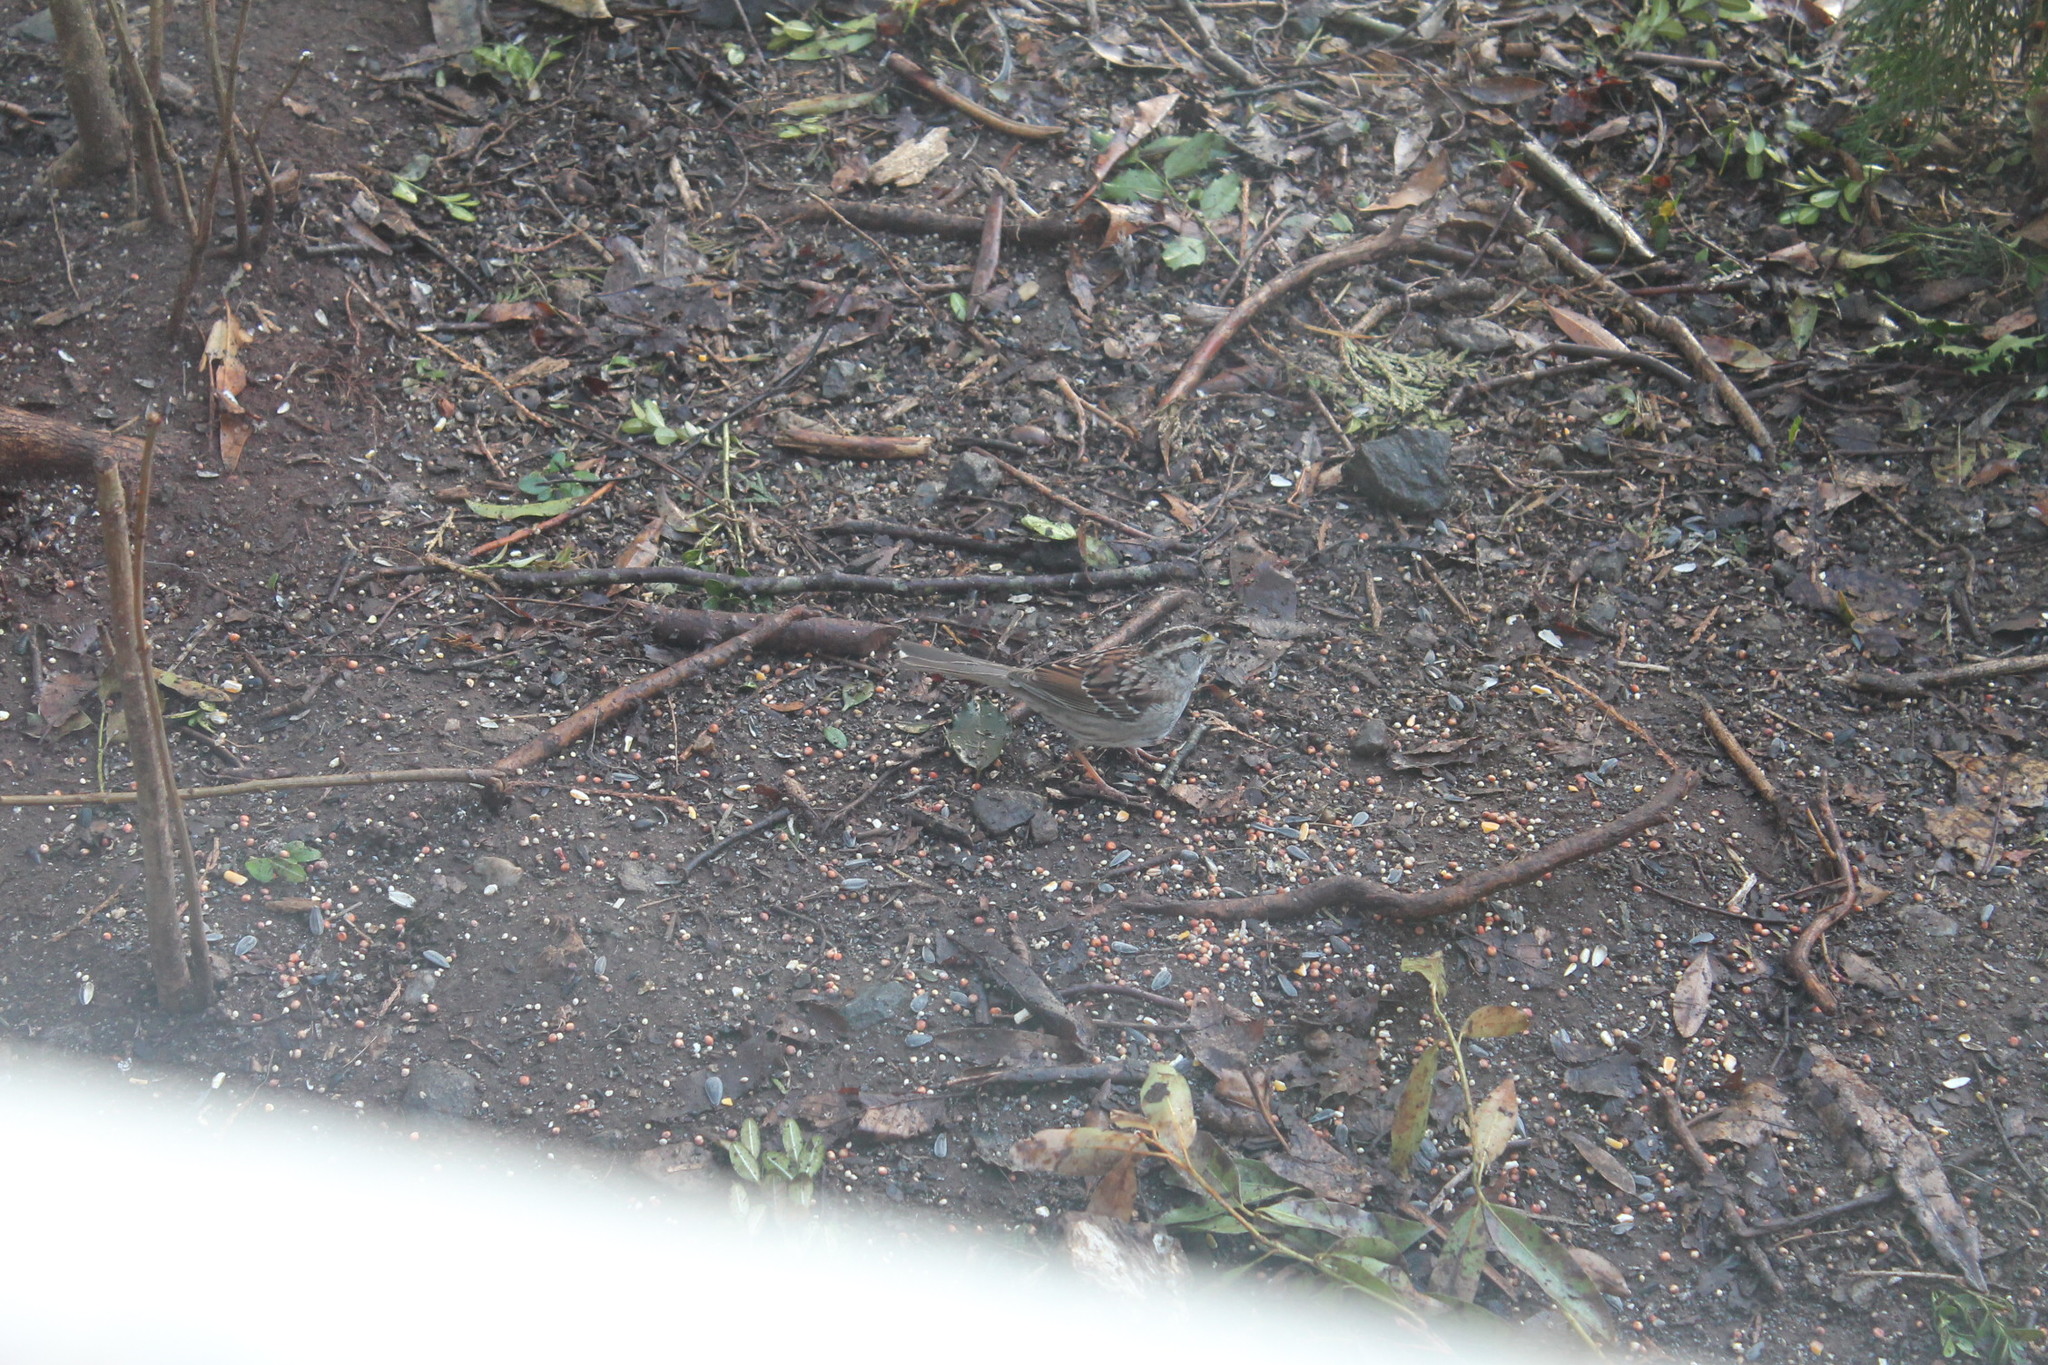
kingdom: Animalia
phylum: Chordata
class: Aves
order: Passeriformes
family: Passerellidae
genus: Zonotrichia
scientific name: Zonotrichia albicollis
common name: White-throated sparrow
